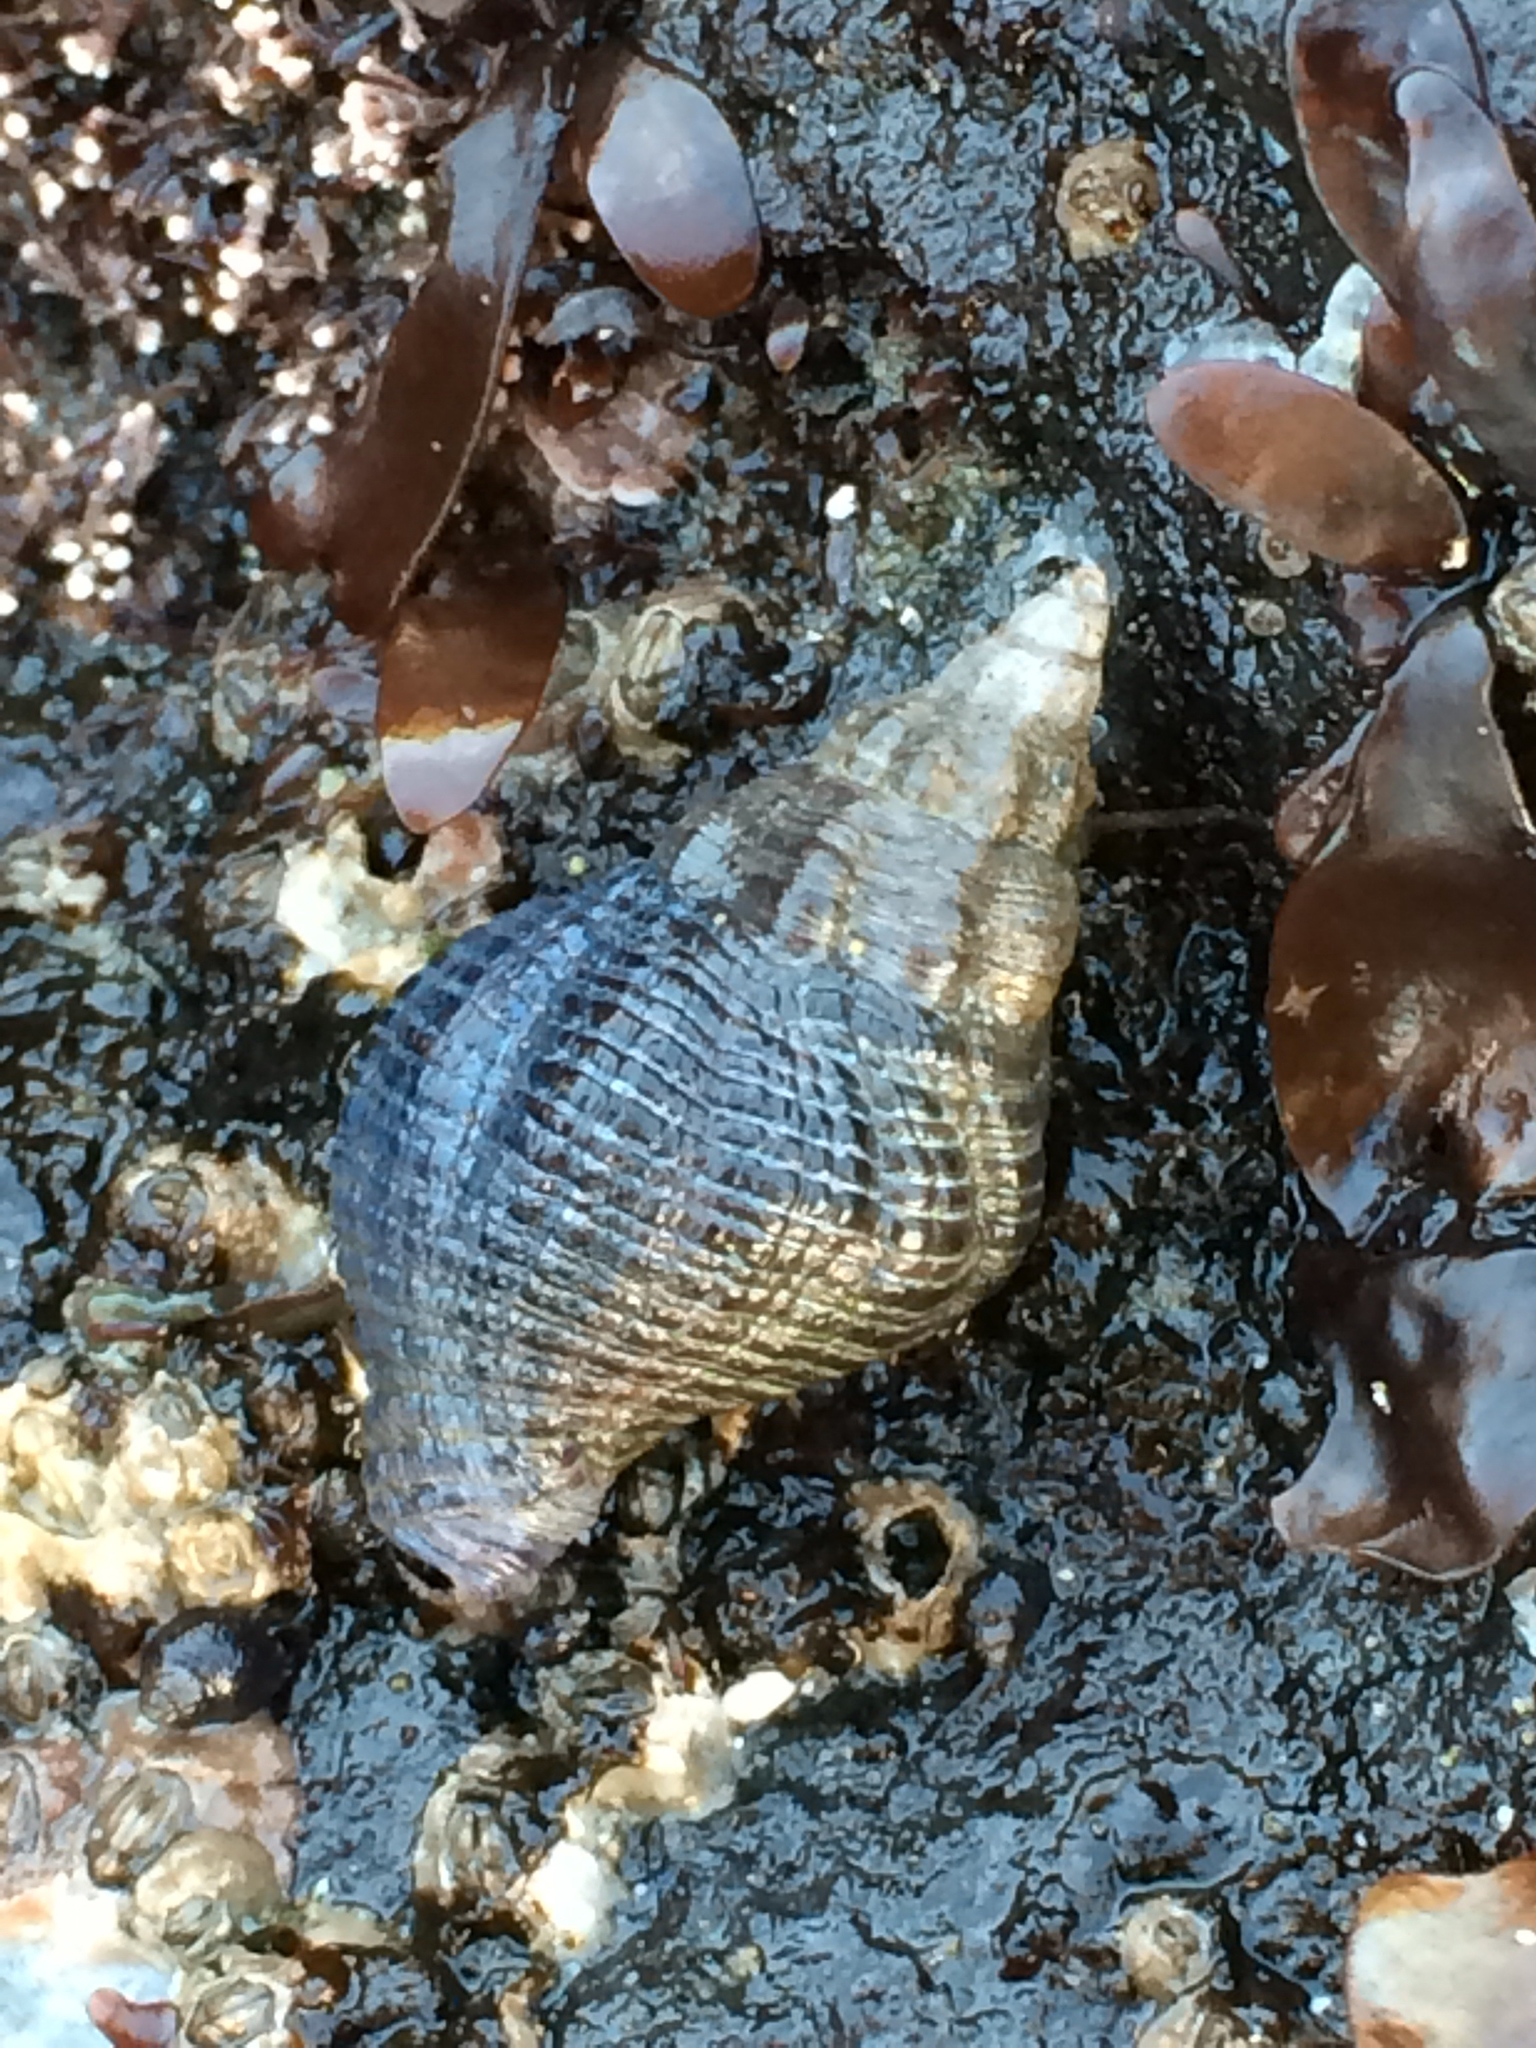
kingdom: Animalia
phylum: Mollusca
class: Gastropoda
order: Neogastropoda
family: Tudiclidae
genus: Lirabuccinum
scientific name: Lirabuccinum dirum
